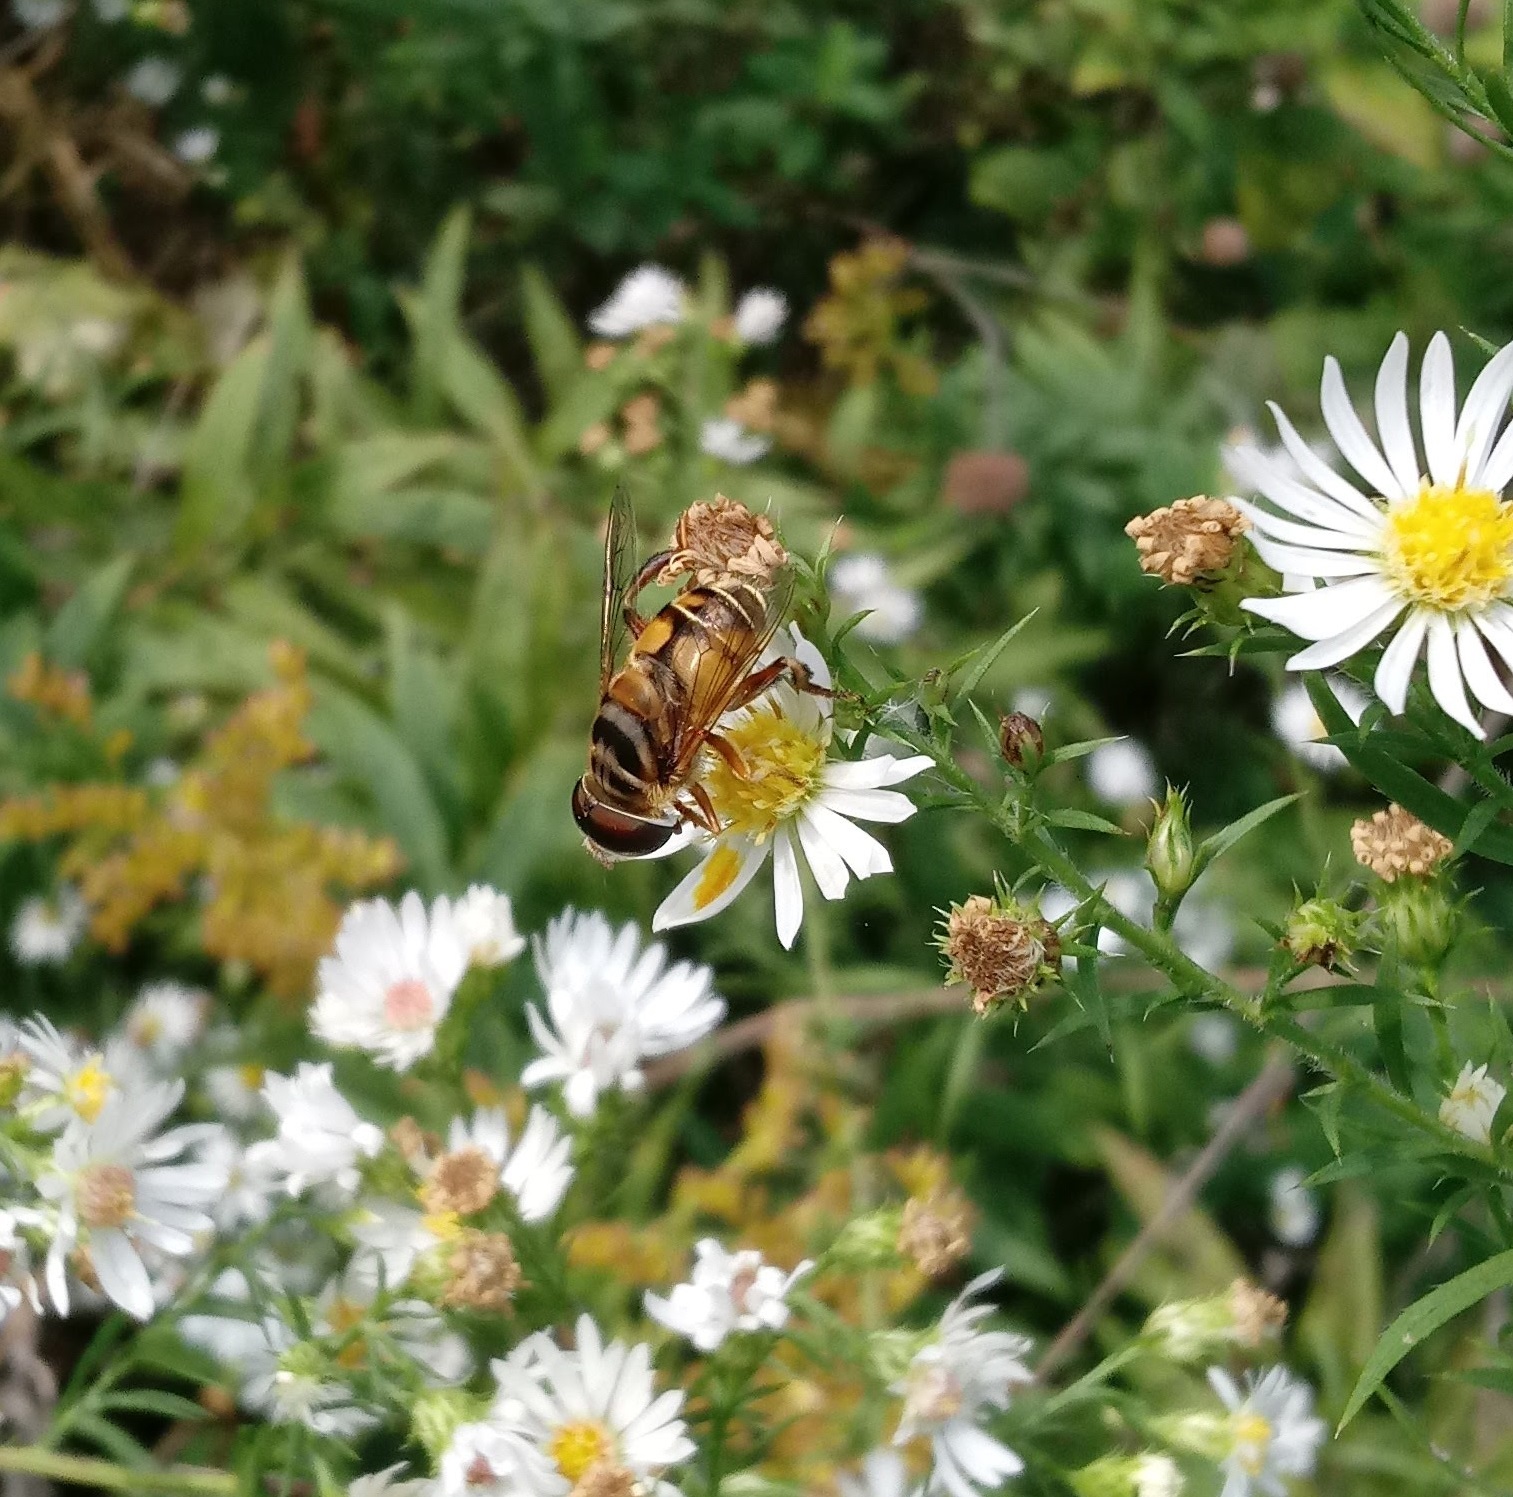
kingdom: Animalia
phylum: Arthropoda
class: Insecta
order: Diptera
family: Syrphidae
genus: Palpada
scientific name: Palpada vinetorum
